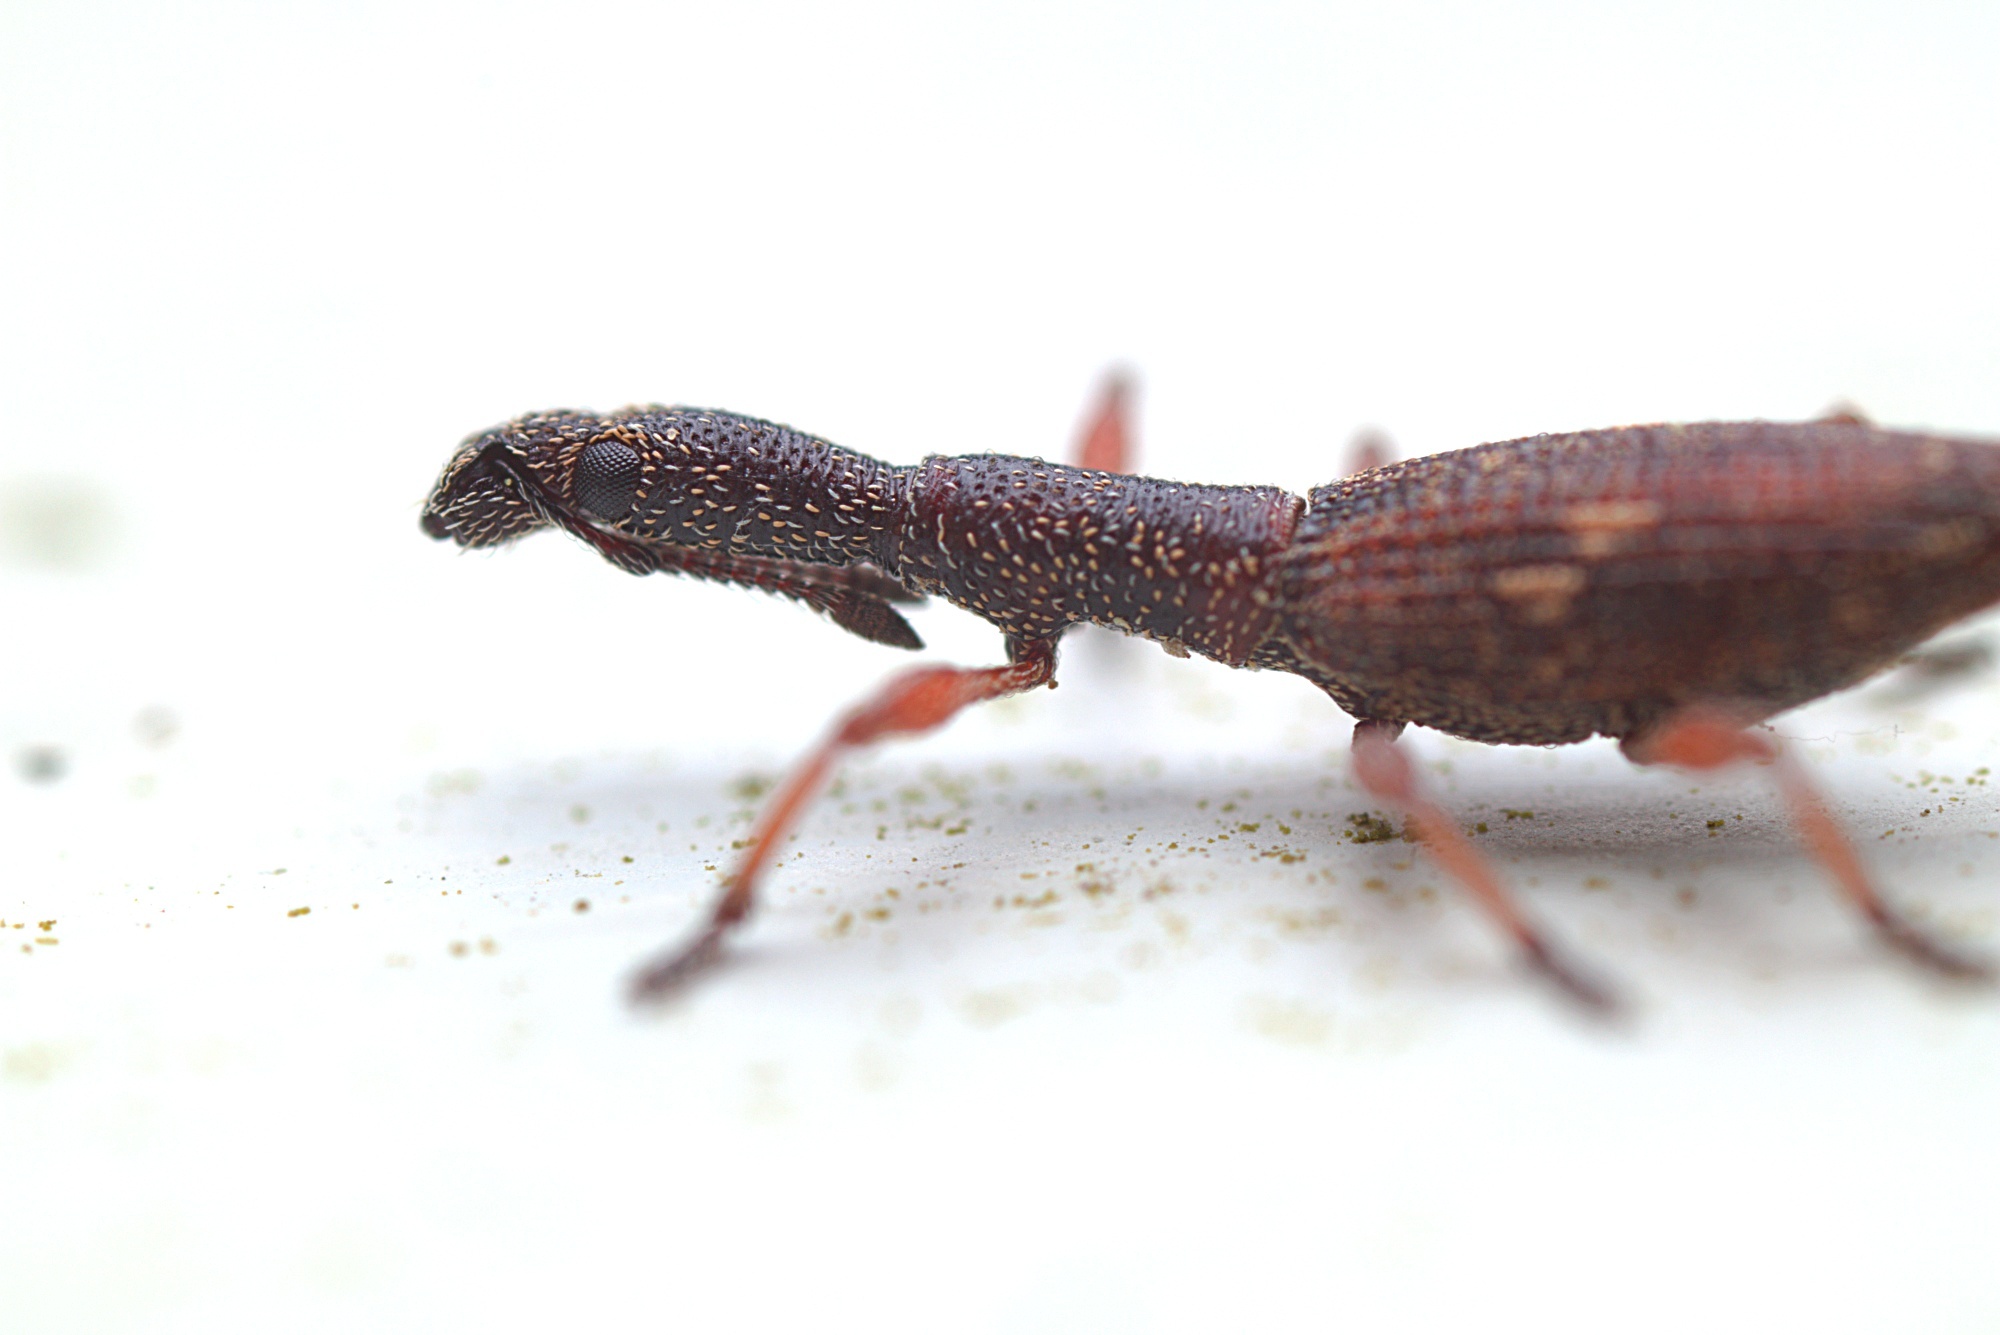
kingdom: Animalia
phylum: Arthropoda
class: Insecta
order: Coleoptera
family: Curculionidae
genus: Rhadinosomus
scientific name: Rhadinosomus acuminatus
